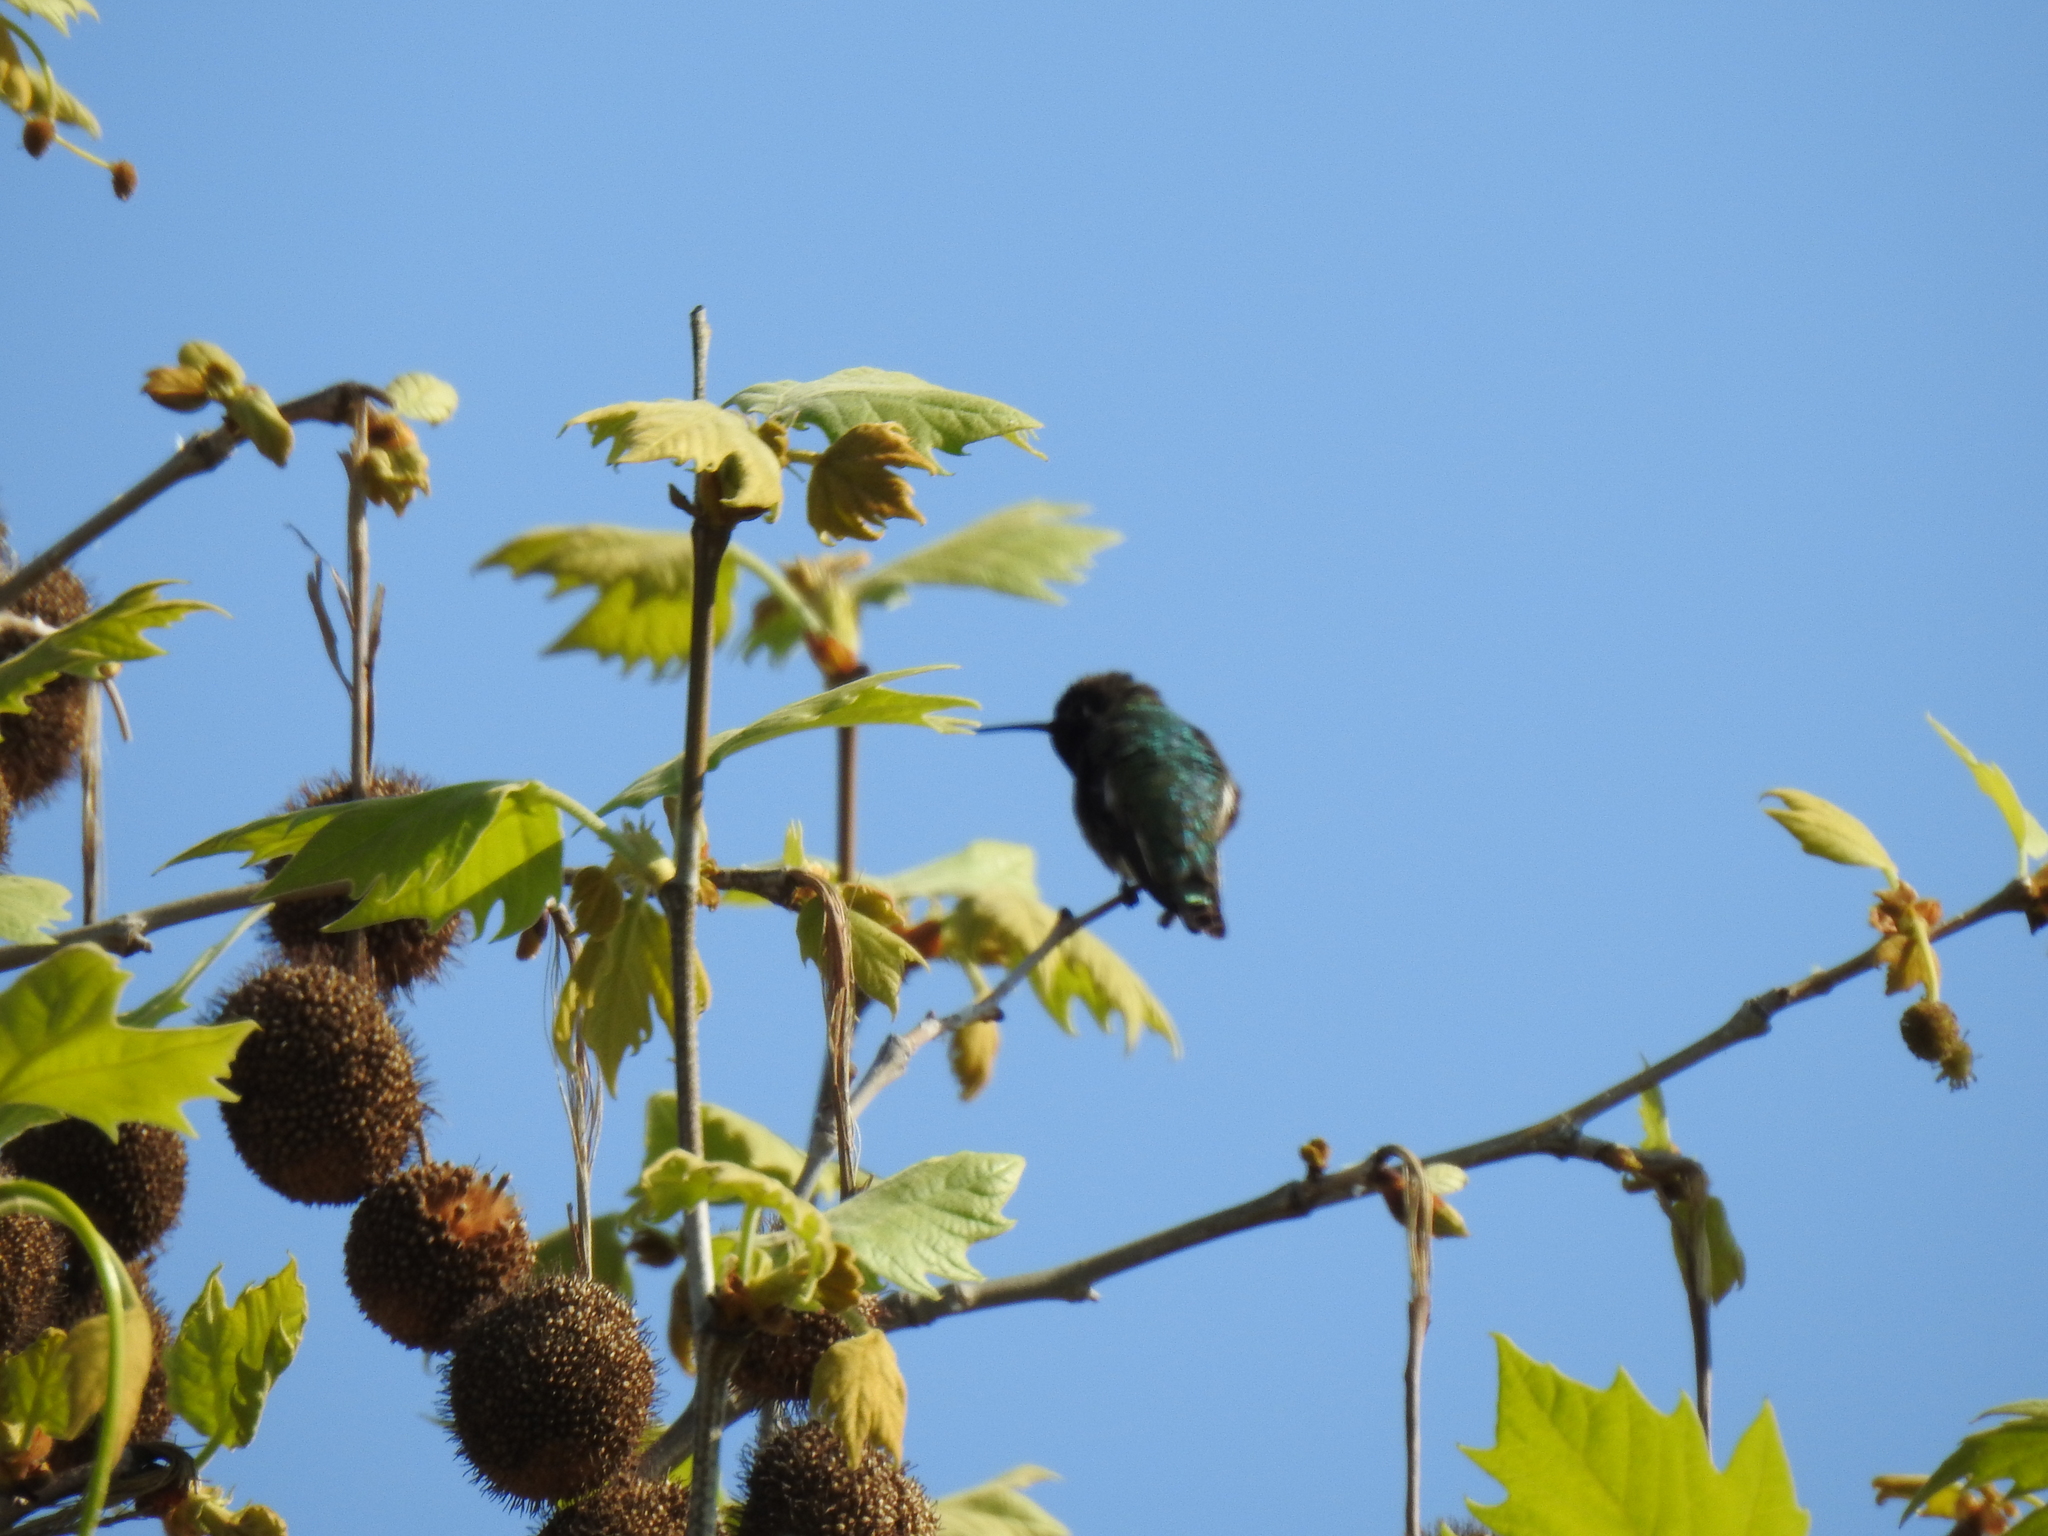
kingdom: Animalia
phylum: Chordata
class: Aves
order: Apodiformes
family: Trochilidae
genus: Calypte
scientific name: Calypte anna
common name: Anna's hummingbird
